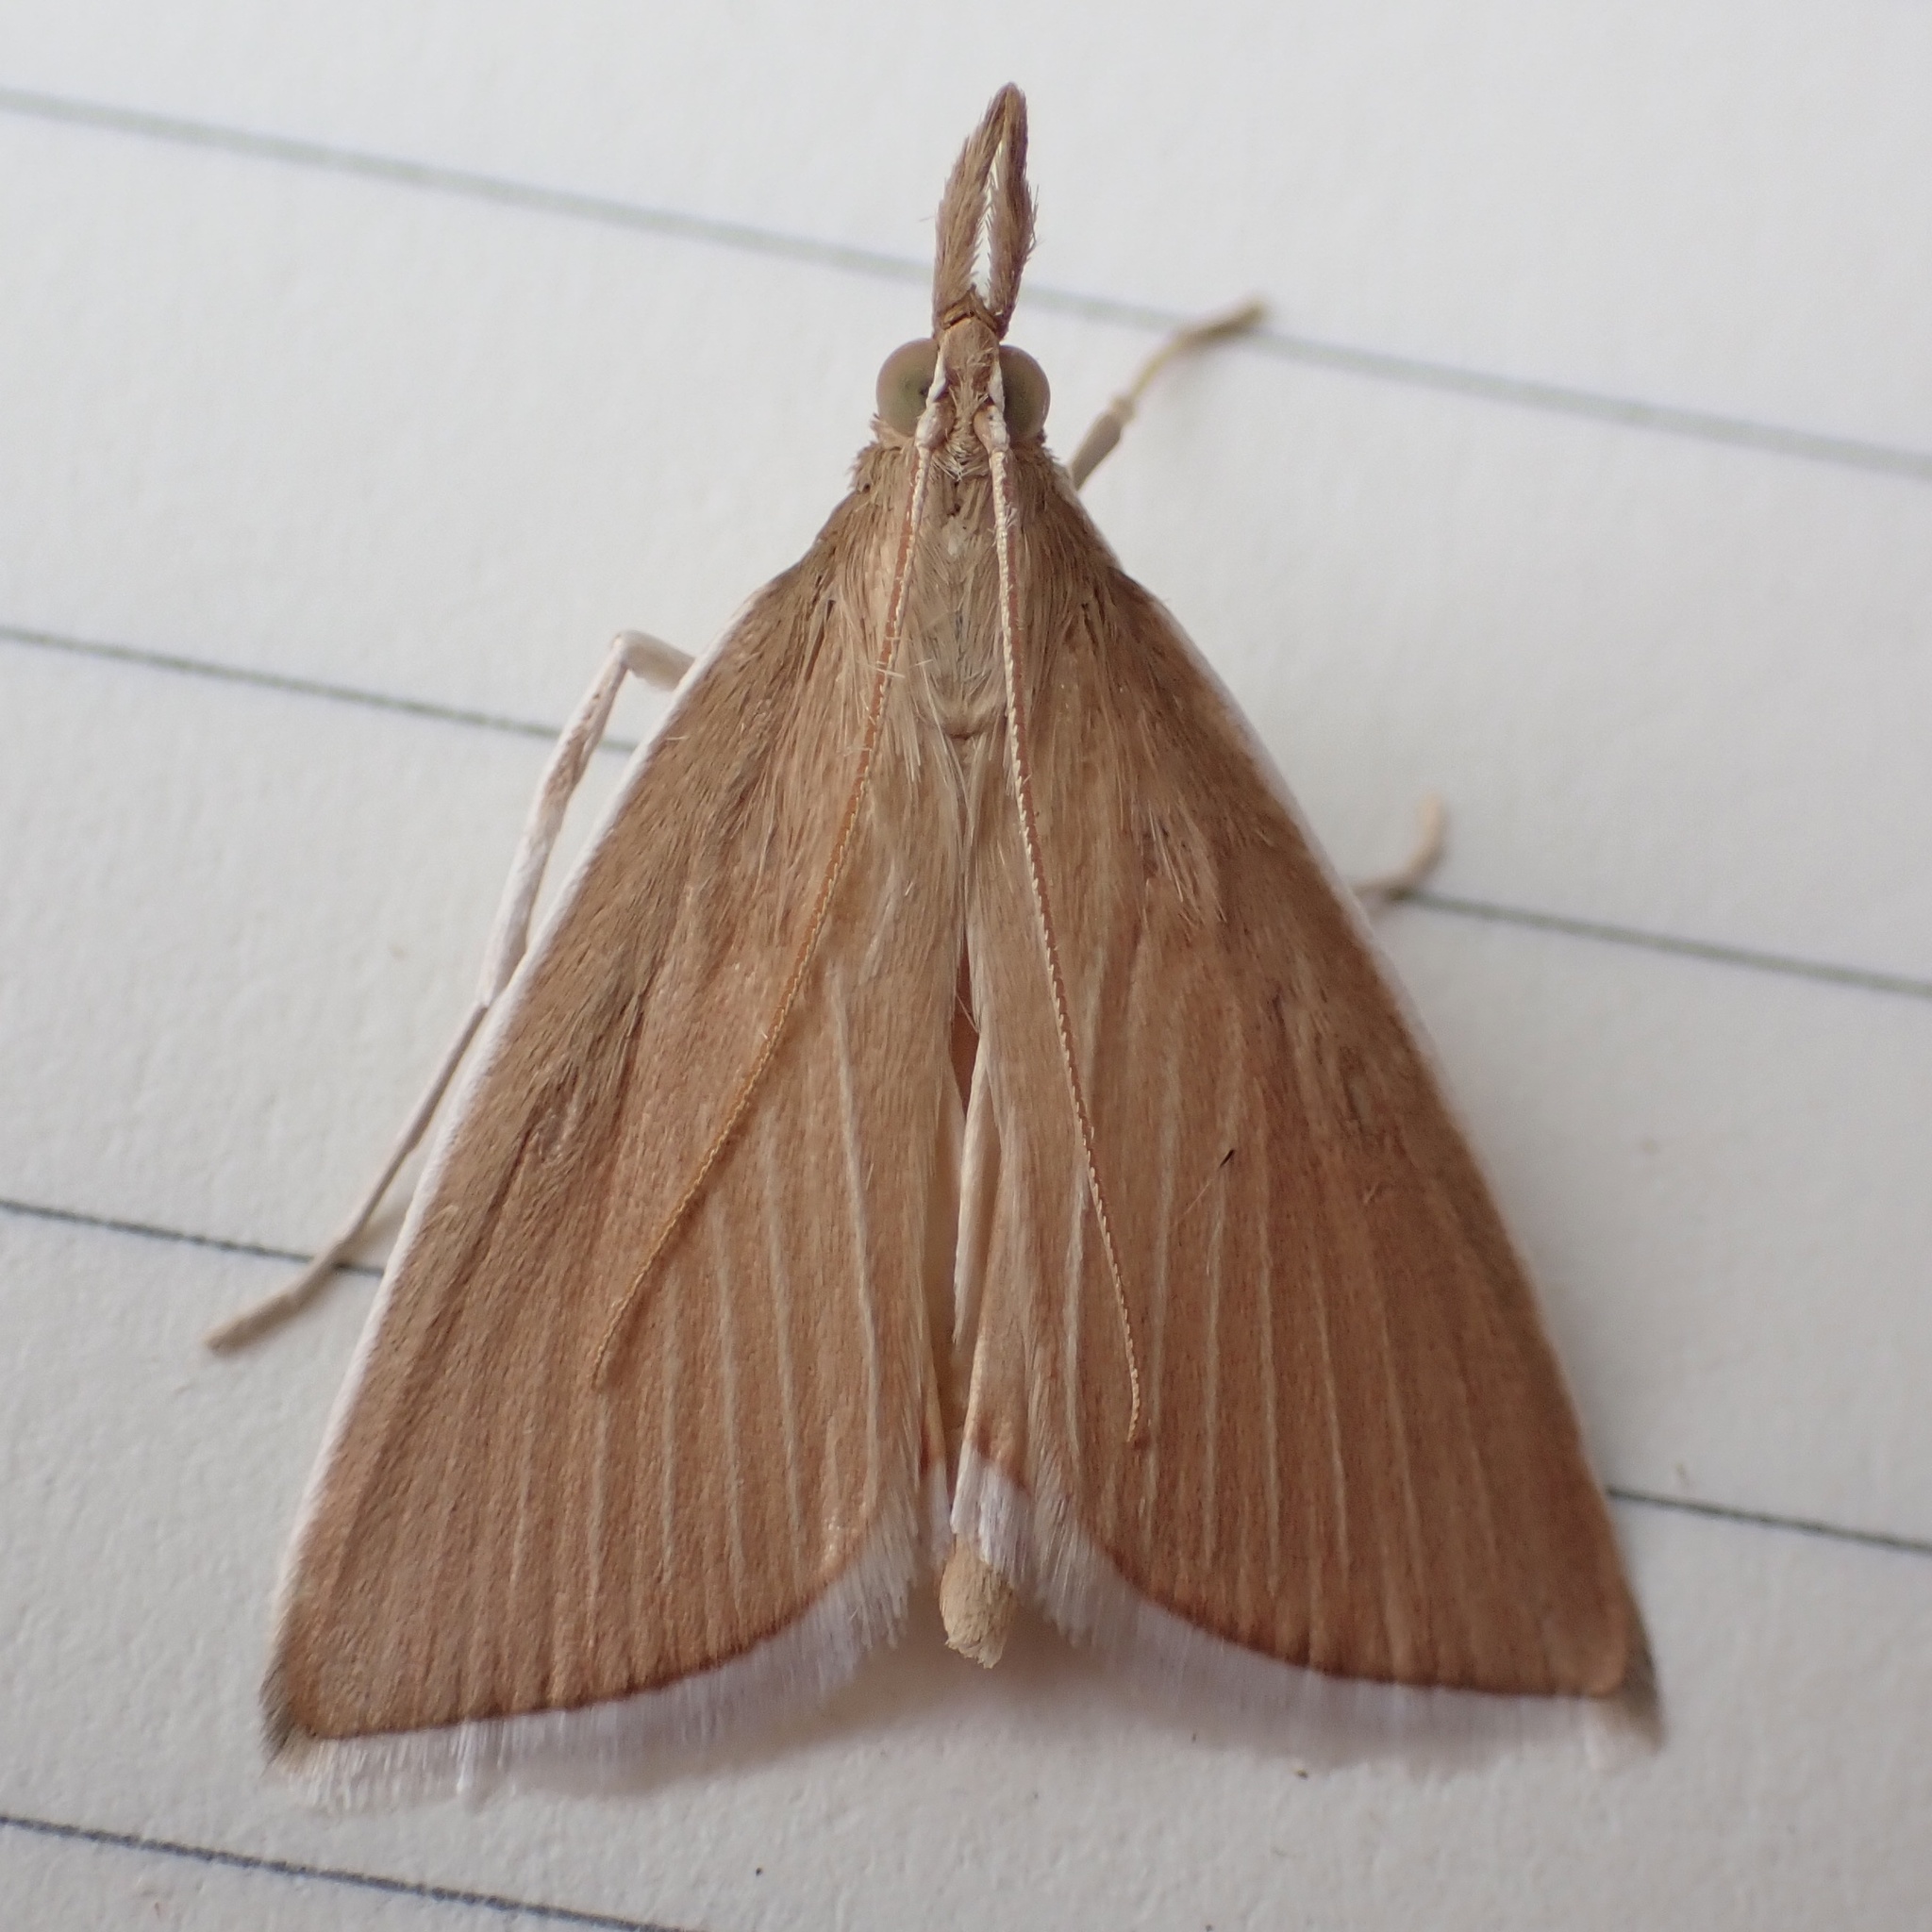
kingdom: Animalia
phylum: Arthropoda
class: Insecta
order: Lepidoptera
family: Crambidae
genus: Calamochrous
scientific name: Calamochrous Sclerocona acutella
